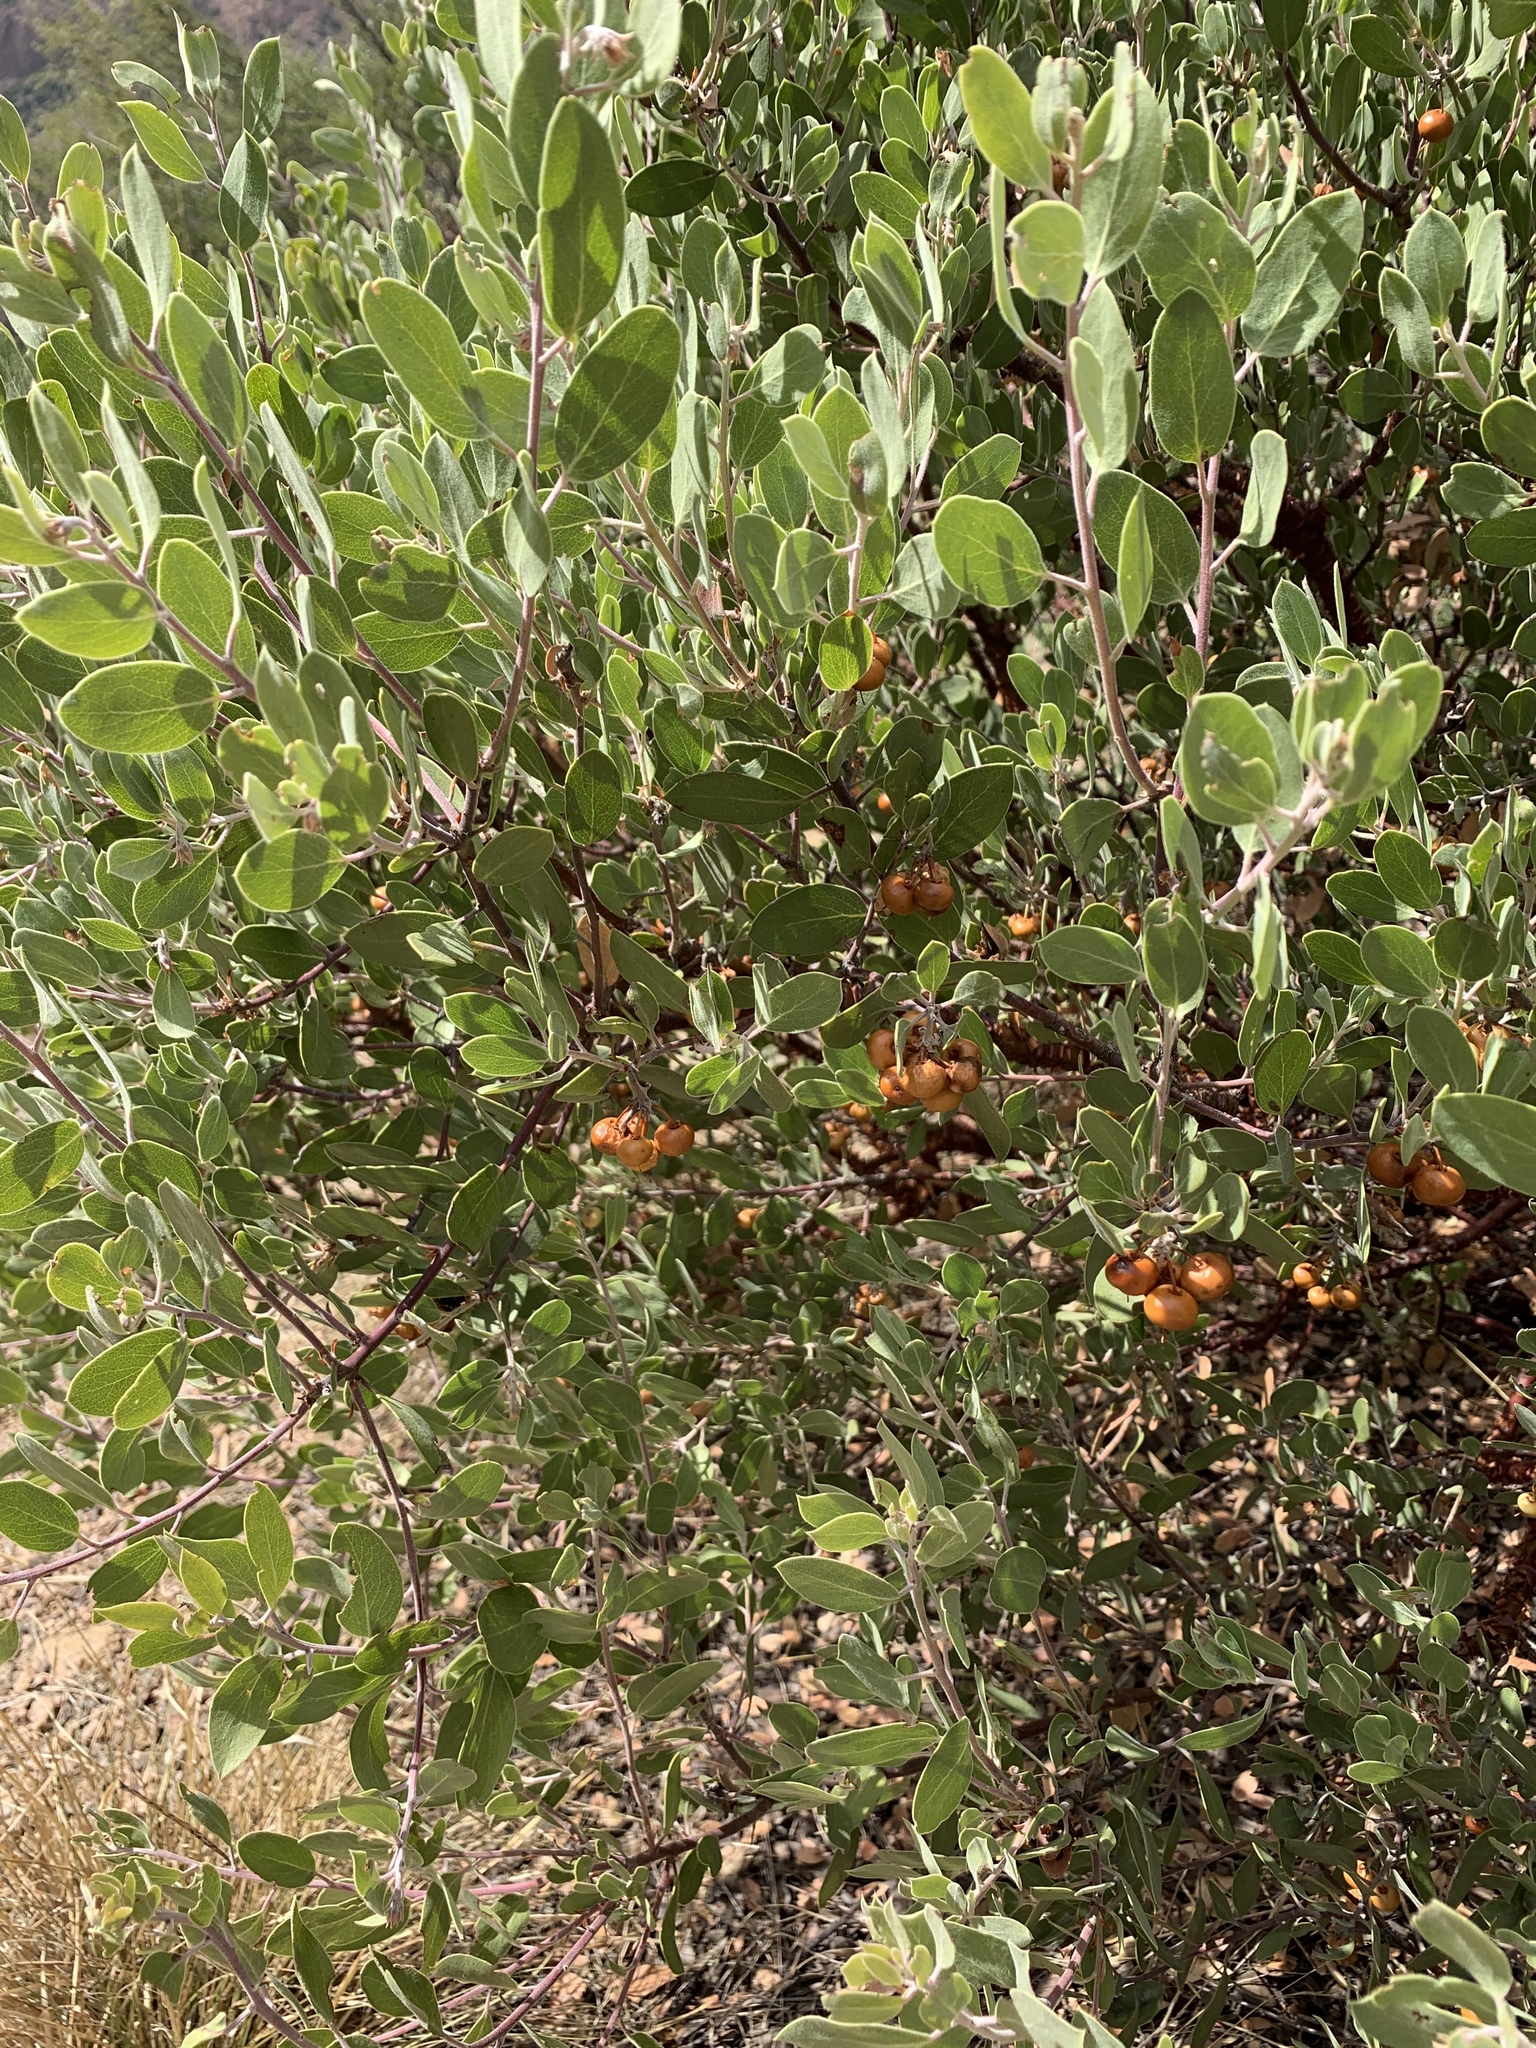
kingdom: Plantae
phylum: Tracheophyta
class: Magnoliopsida
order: Ericales
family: Ericaceae
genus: Arctostaphylos
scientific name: Arctostaphylos pungens
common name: Mexican manzanita
